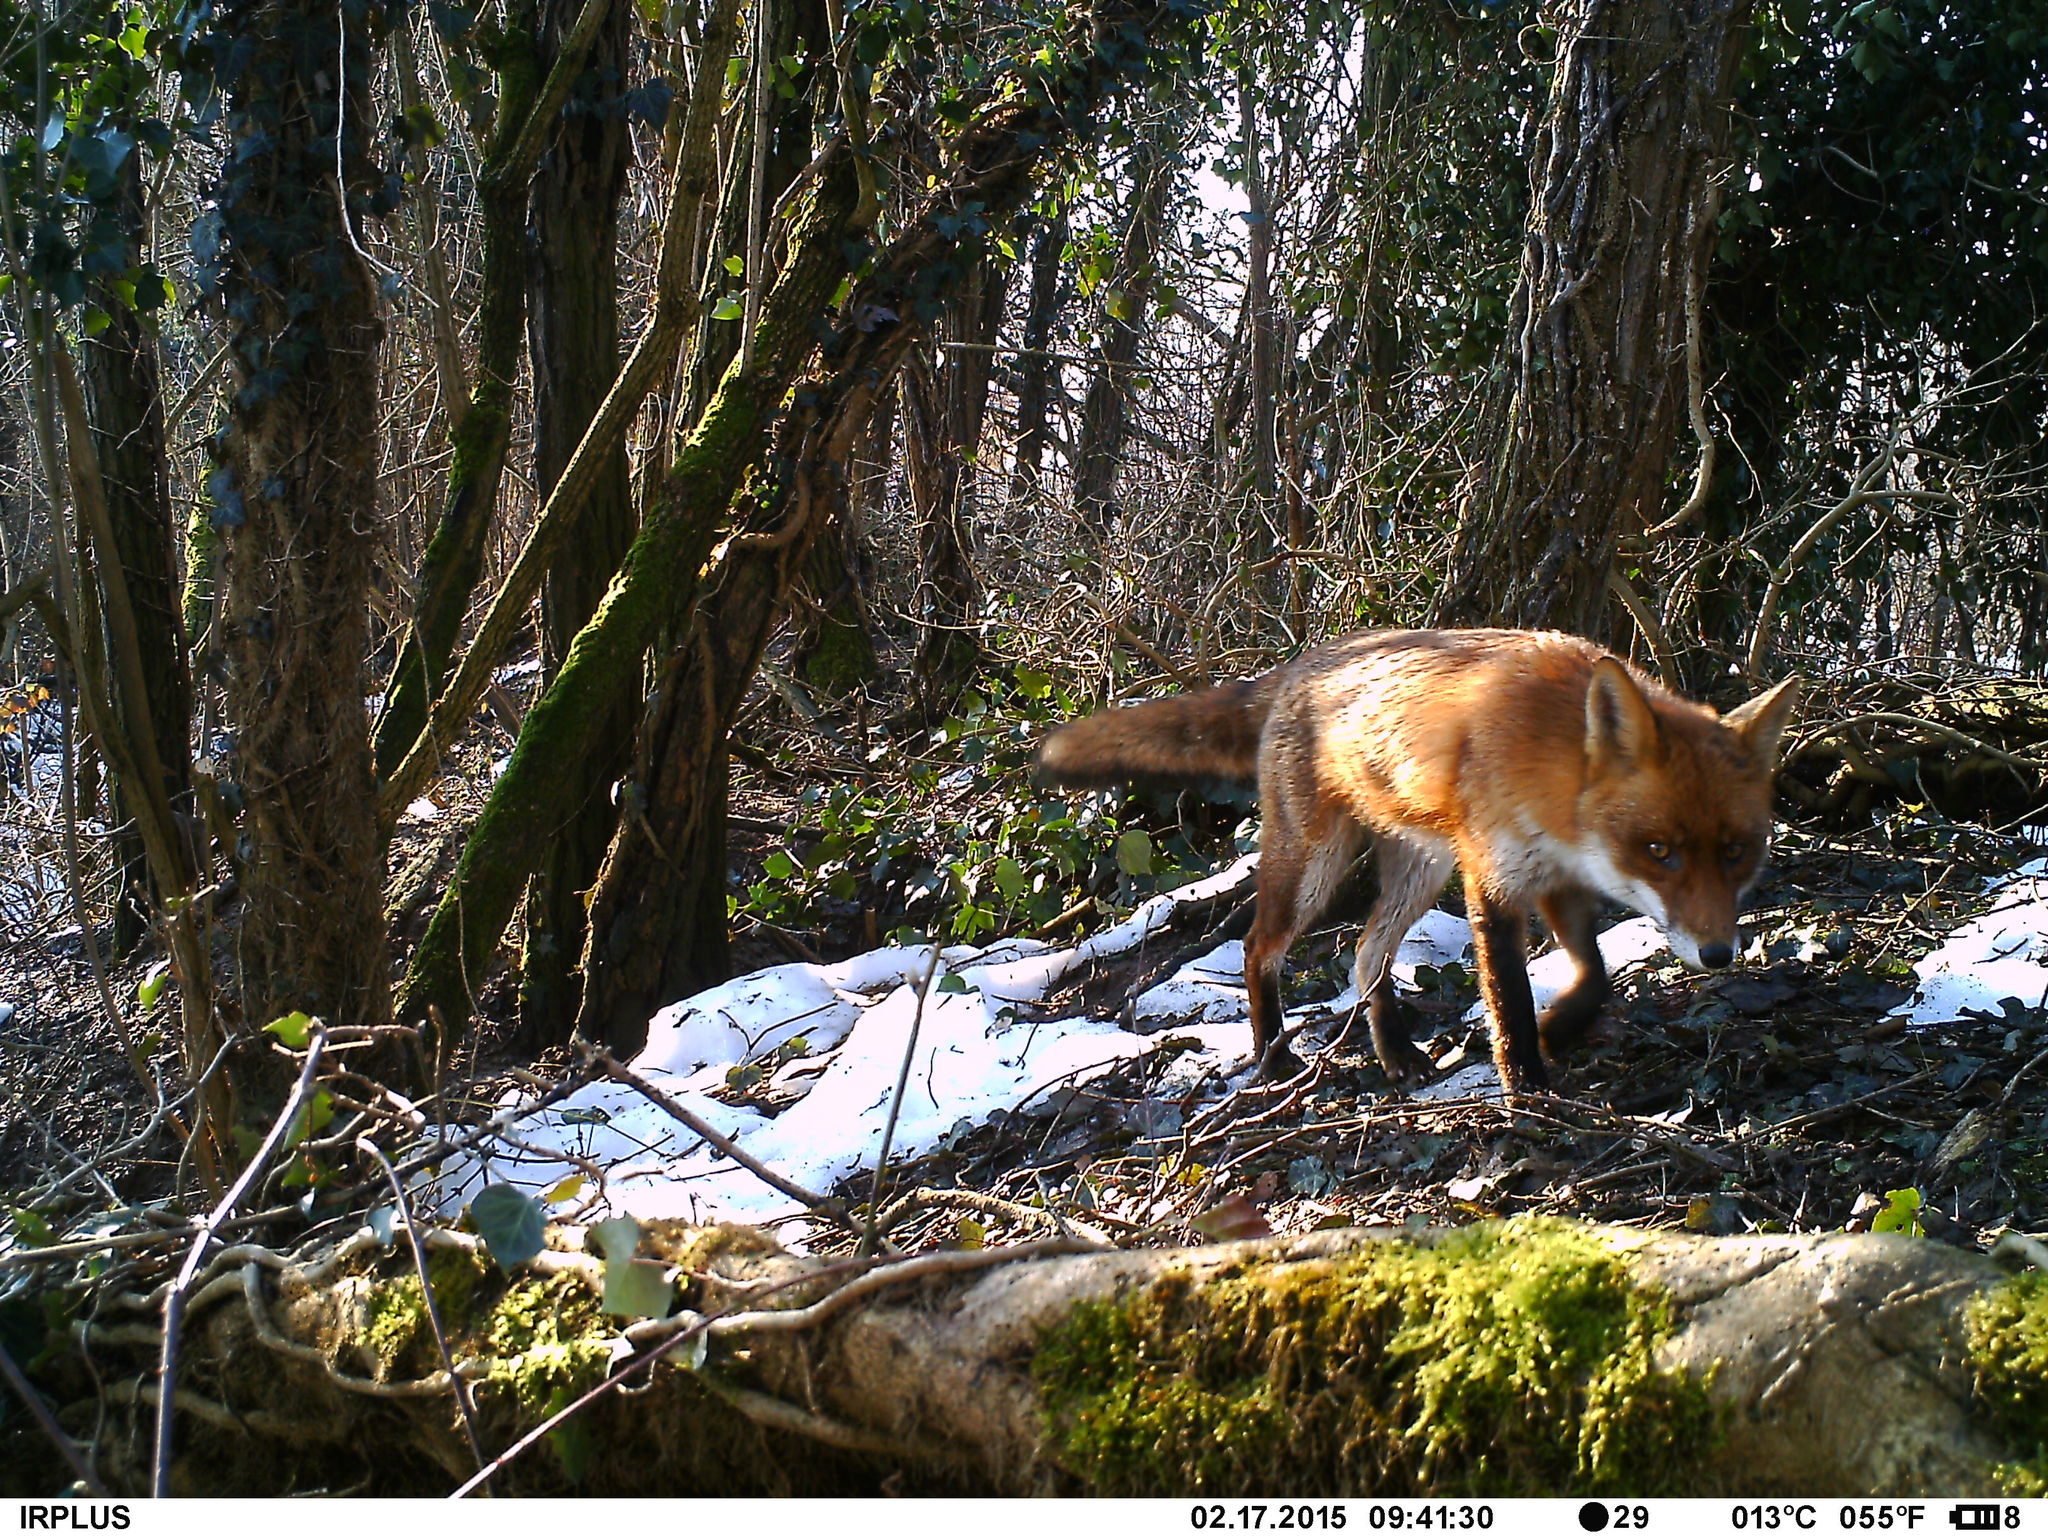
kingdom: Animalia
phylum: Chordata
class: Mammalia
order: Carnivora
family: Canidae
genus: Vulpes
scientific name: Vulpes vulpes
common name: Red fox
